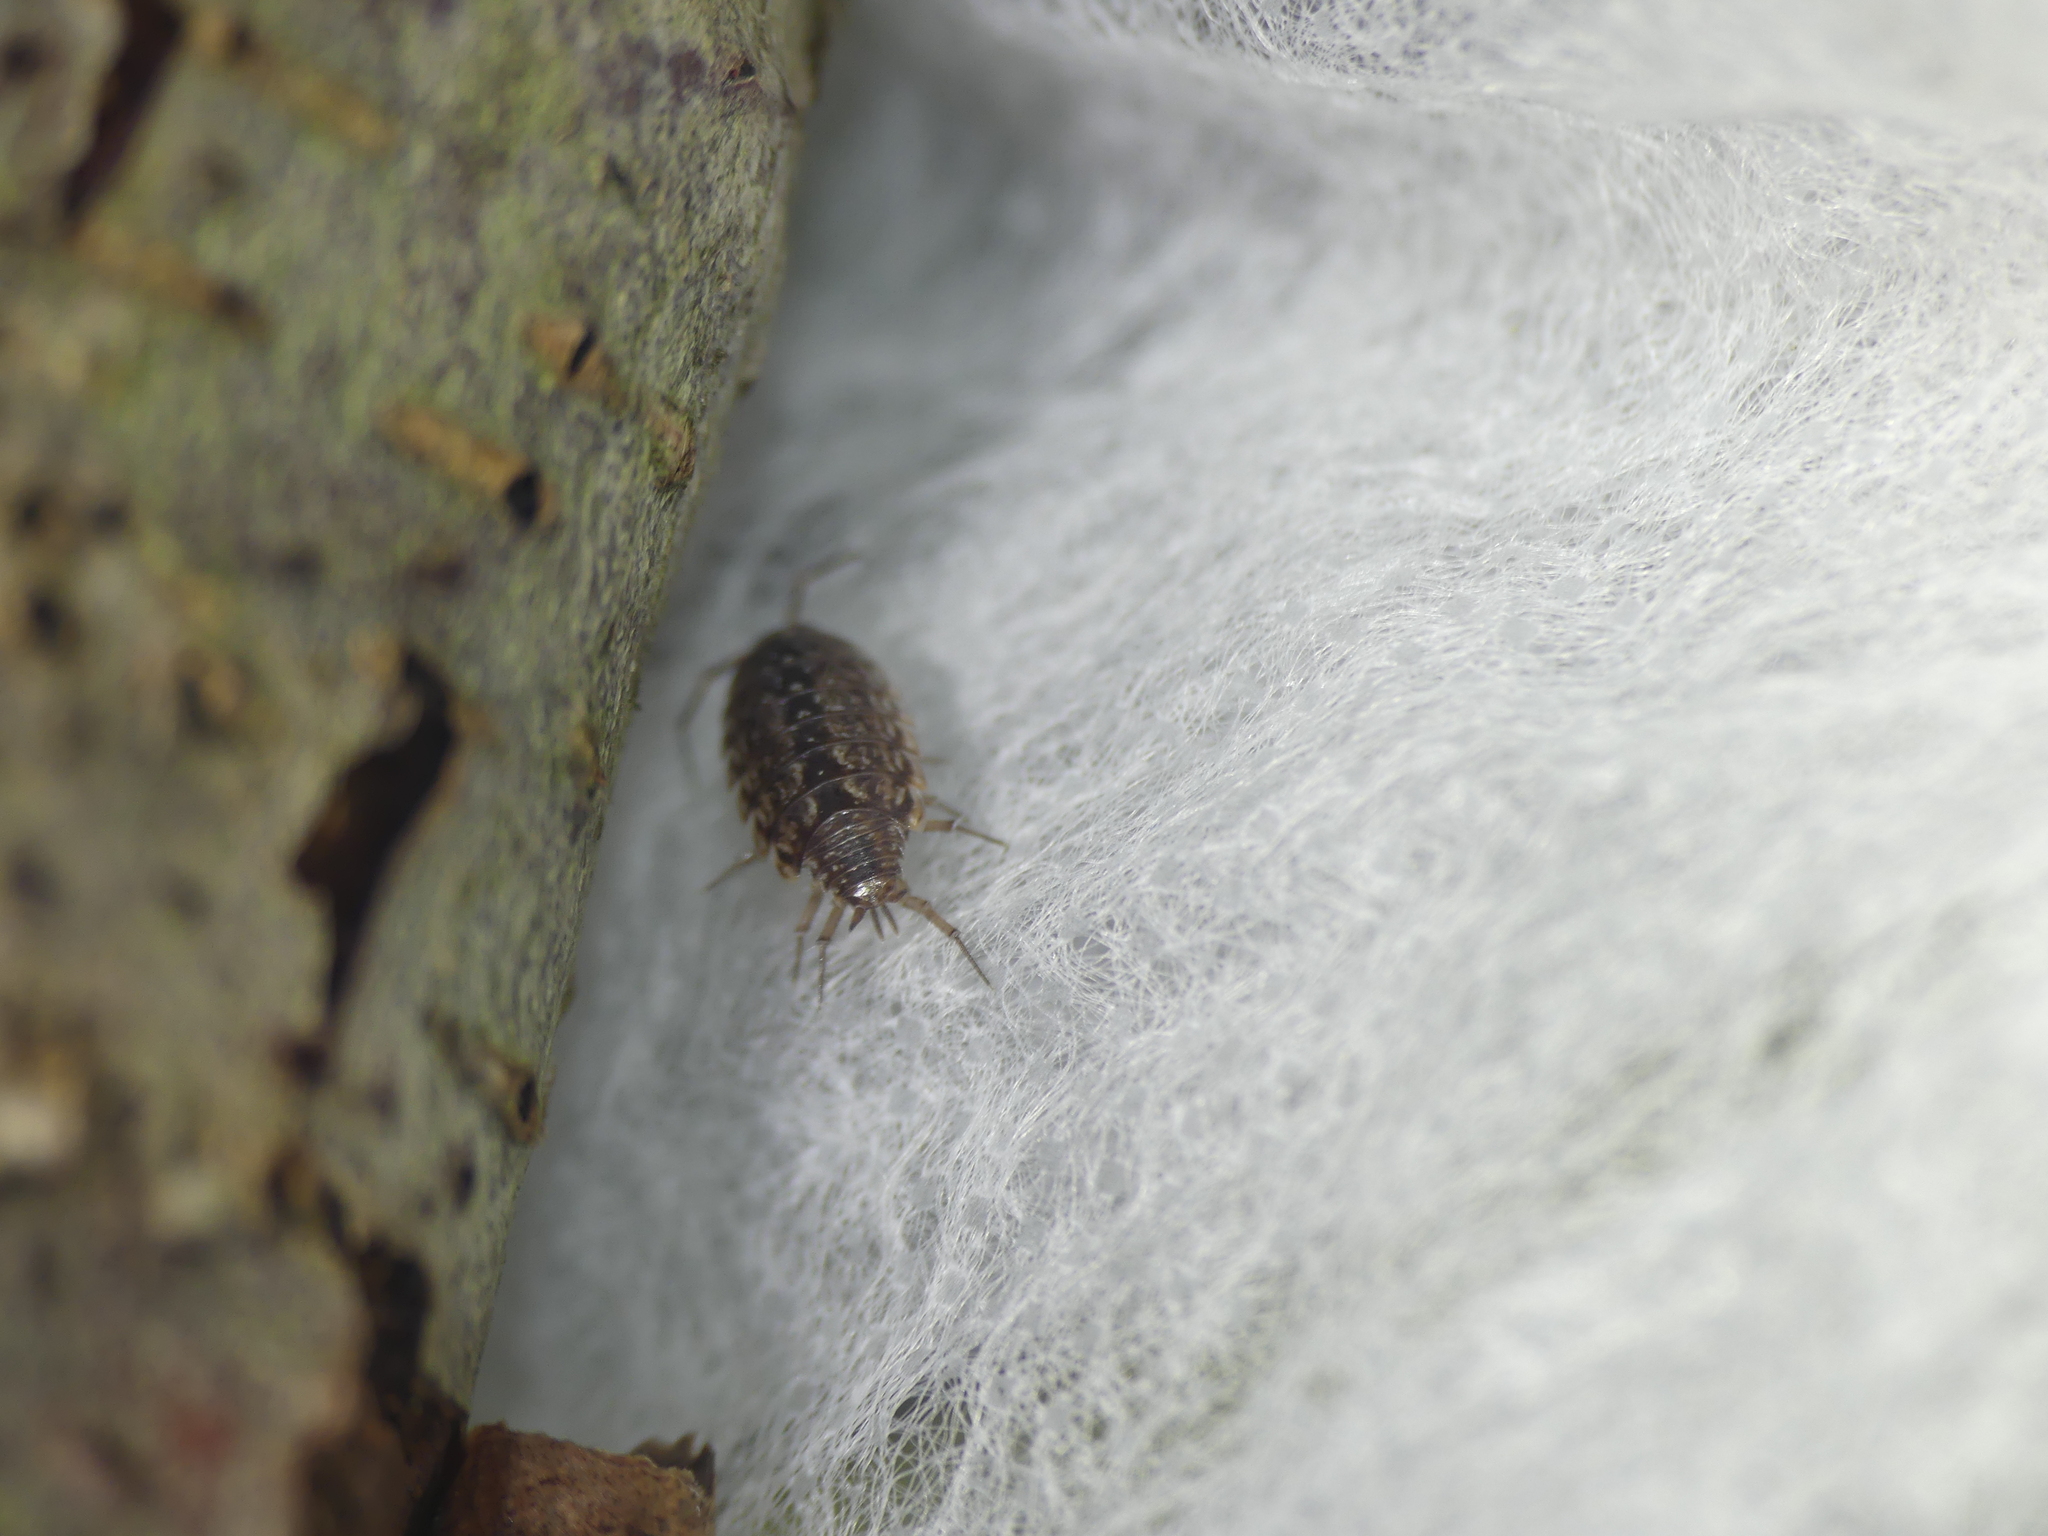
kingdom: Animalia
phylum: Arthropoda
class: Malacostraca
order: Isopoda
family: Philosciidae
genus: Philoscia
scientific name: Philoscia muscorum
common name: Common striped woodlouse
